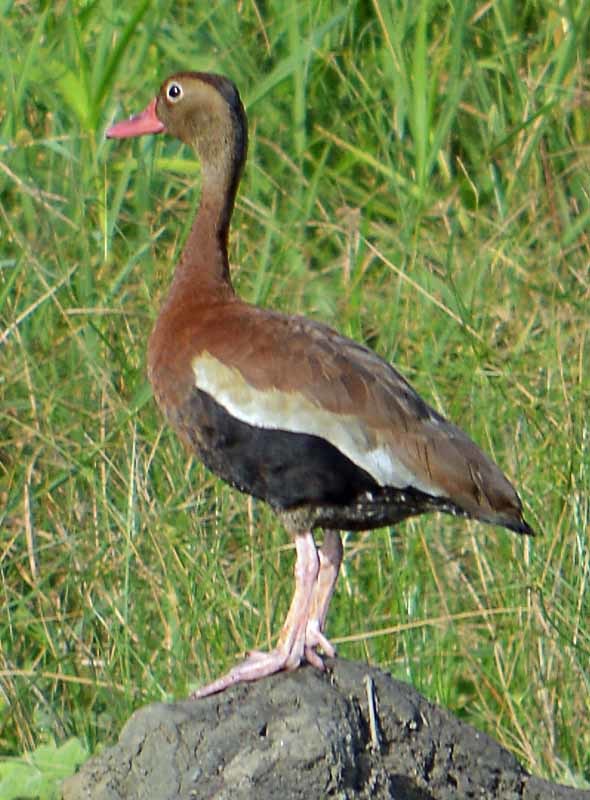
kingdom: Animalia
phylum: Chordata
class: Aves
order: Anseriformes
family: Anatidae
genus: Dendrocygna
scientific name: Dendrocygna autumnalis
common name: Black-bellied whistling duck
